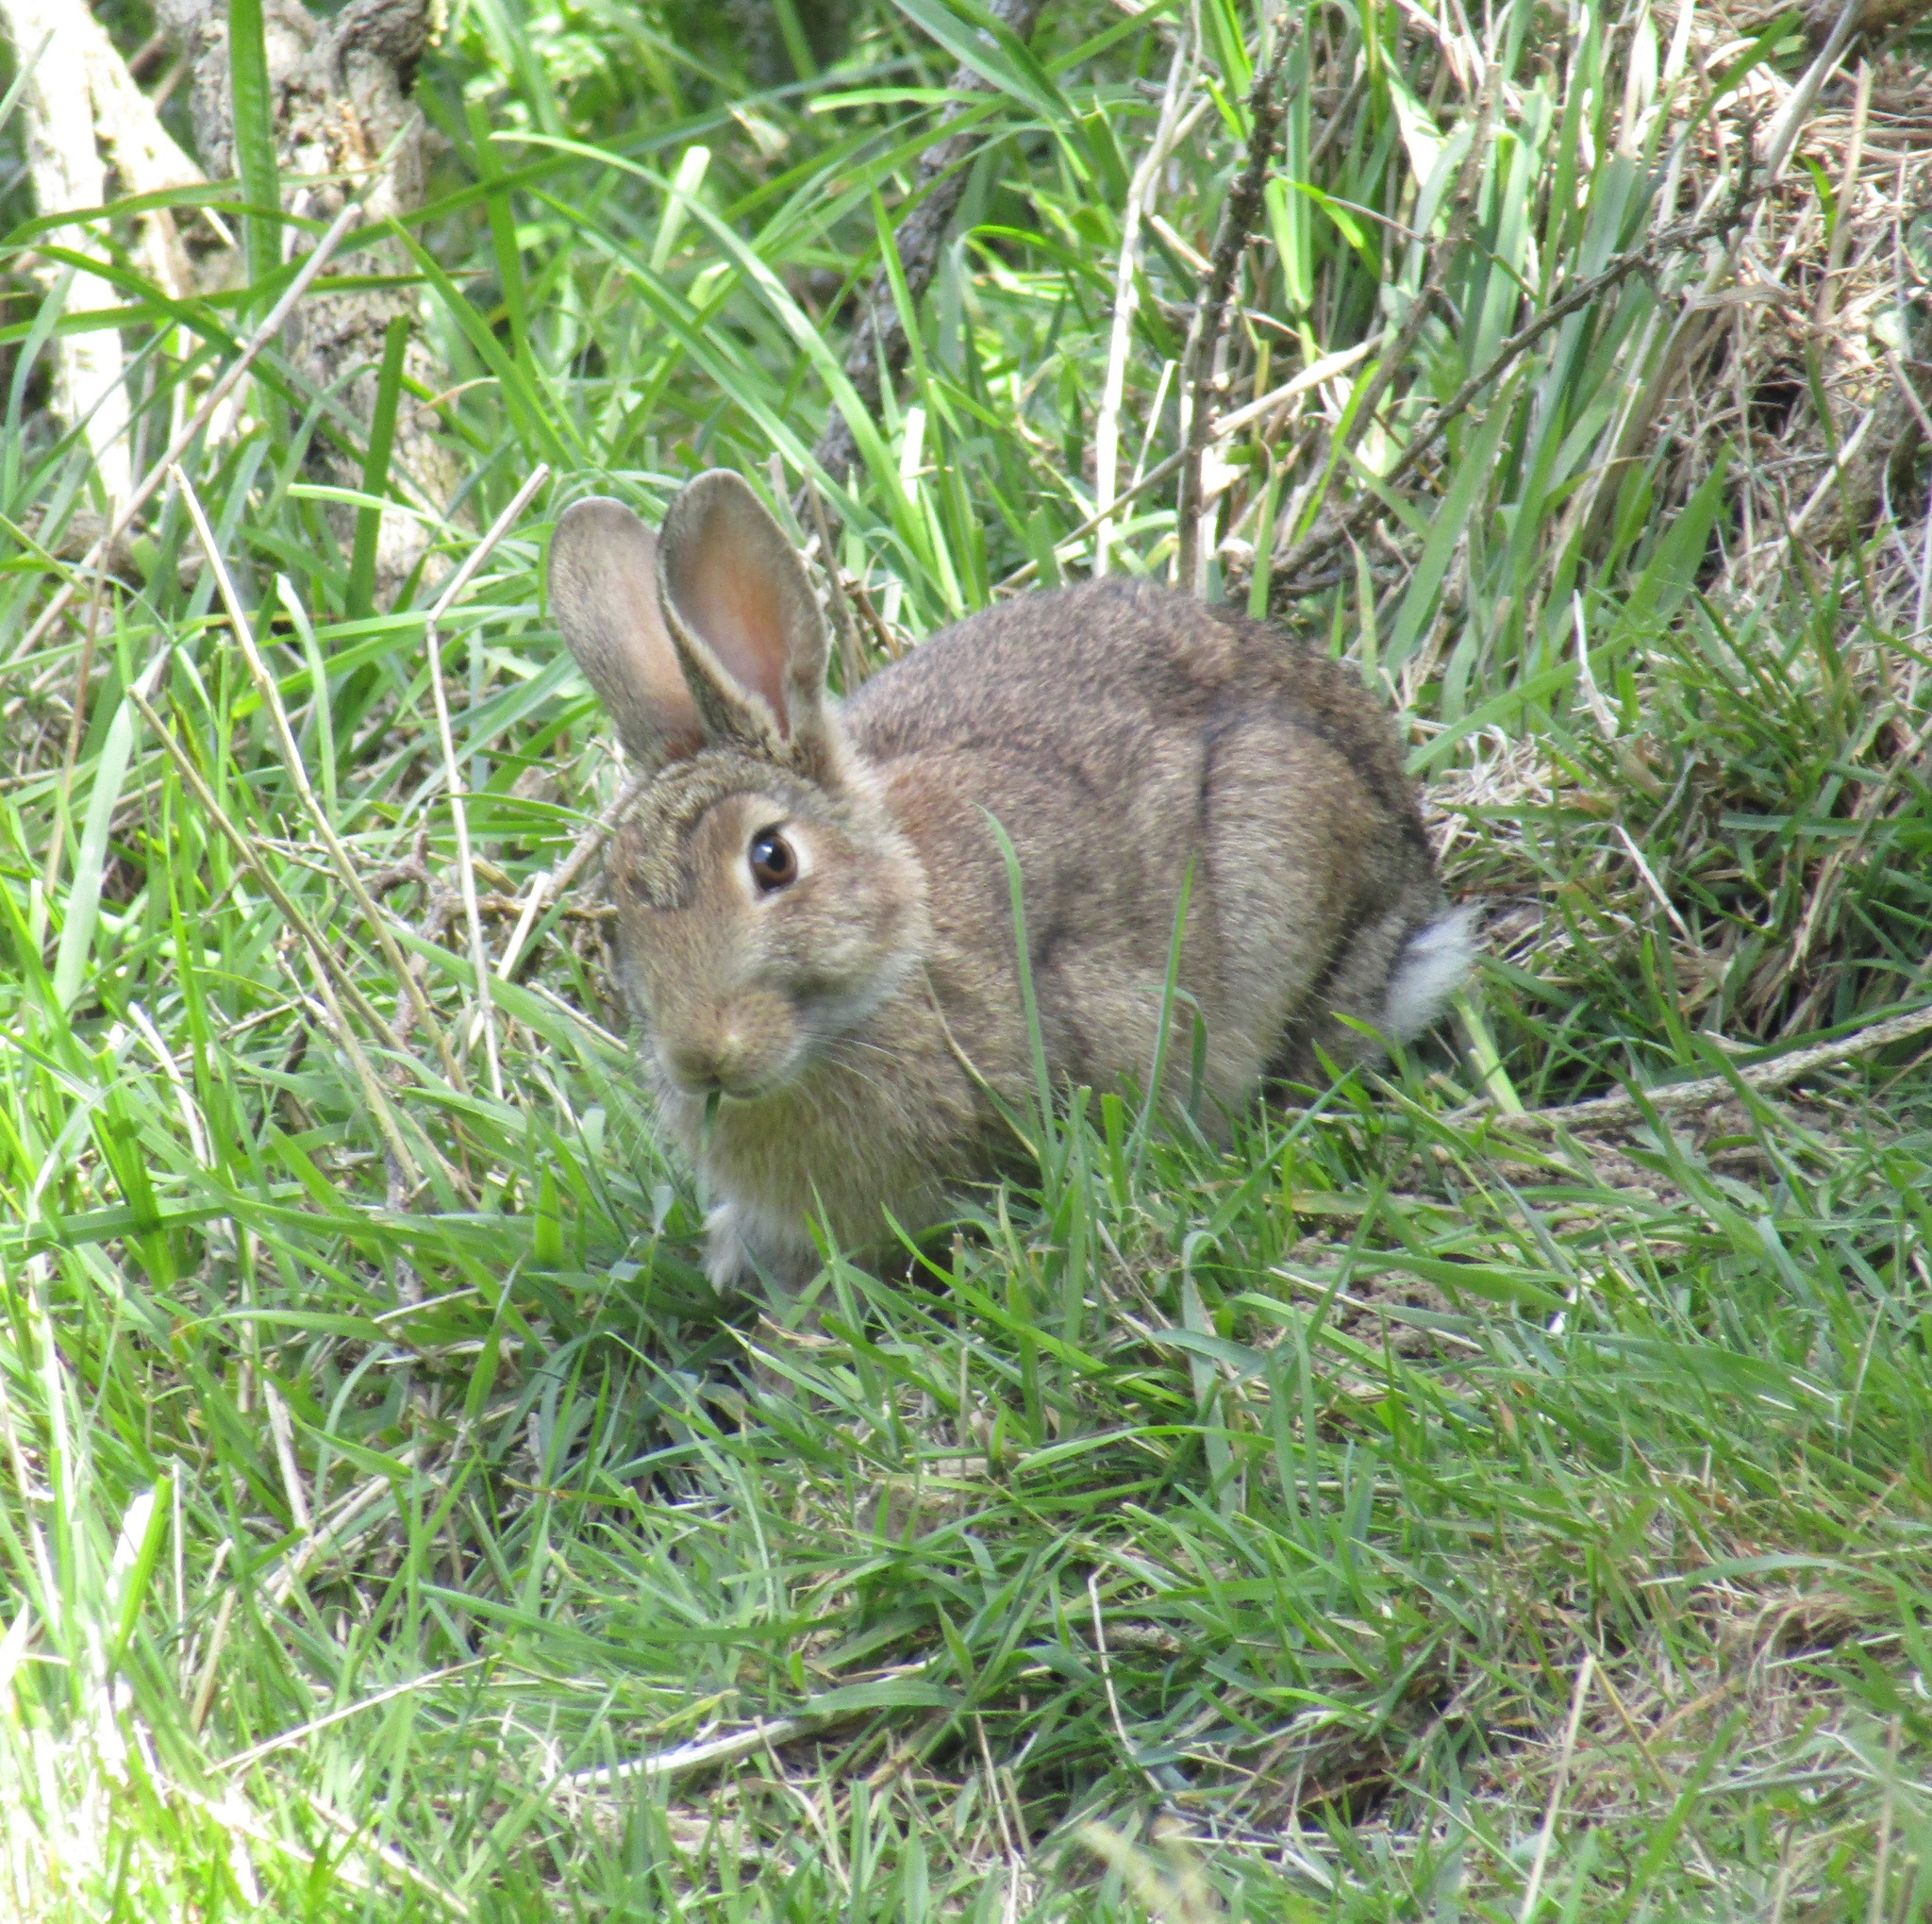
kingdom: Animalia
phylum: Chordata
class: Mammalia
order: Lagomorpha
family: Leporidae
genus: Oryctolagus
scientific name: Oryctolagus cuniculus
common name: European rabbit
